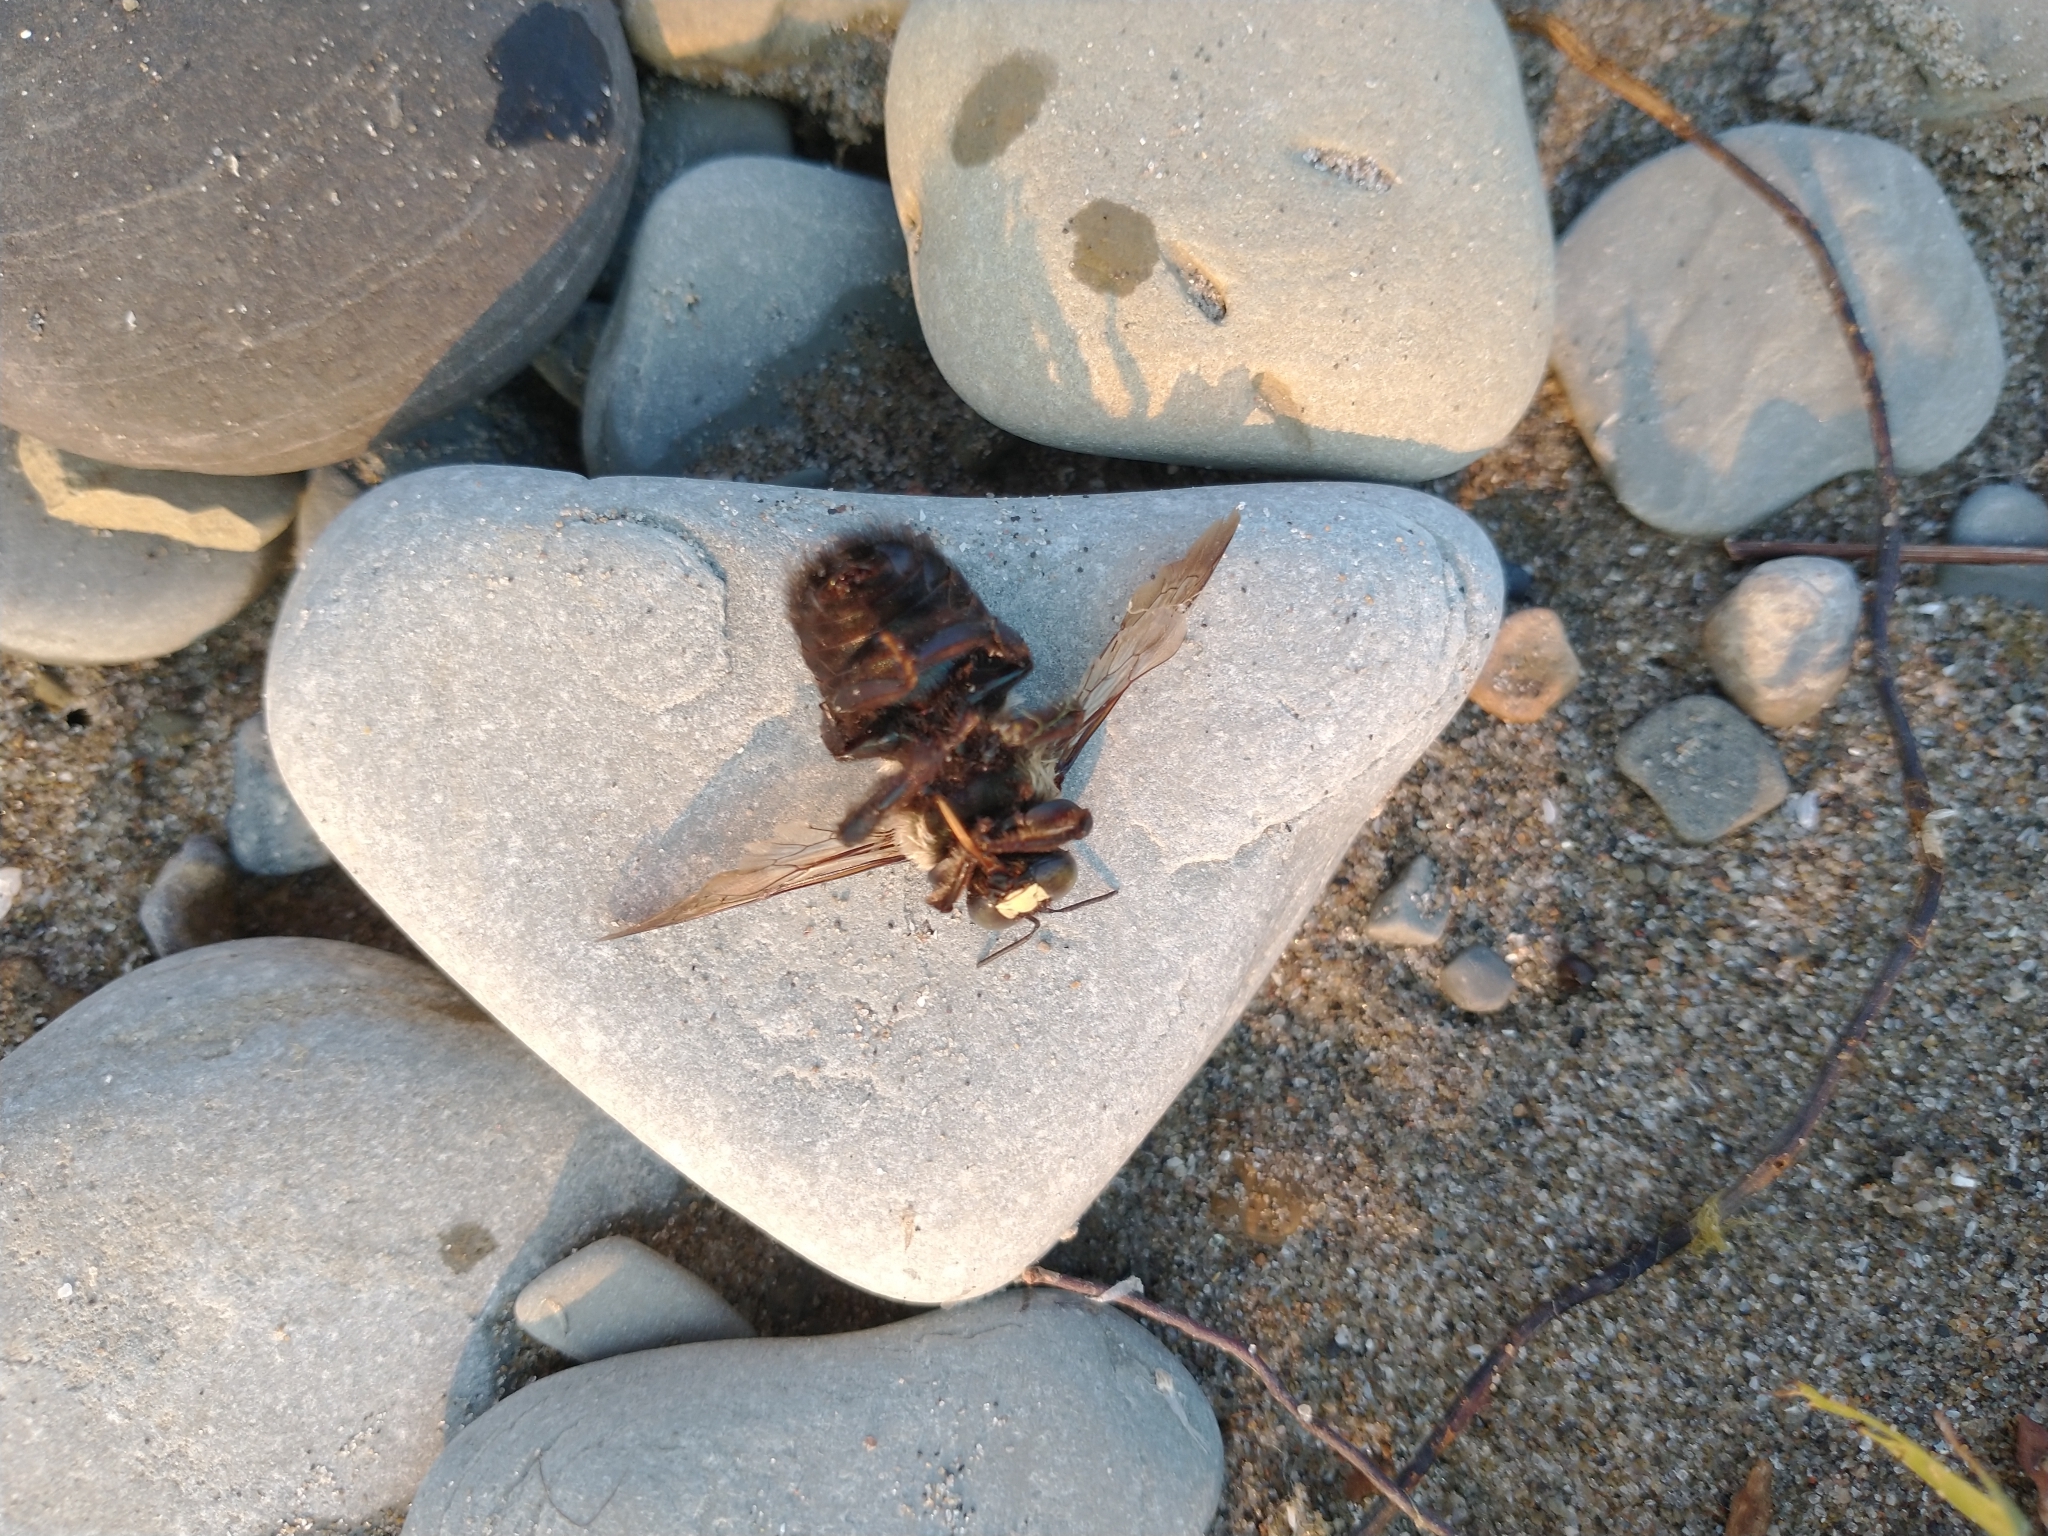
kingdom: Animalia
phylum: Arthropoda
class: Insecta
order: Hymenoptera
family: Apidae
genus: Xylocopa
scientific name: Xylocopa virginica
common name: Carpenter bee
